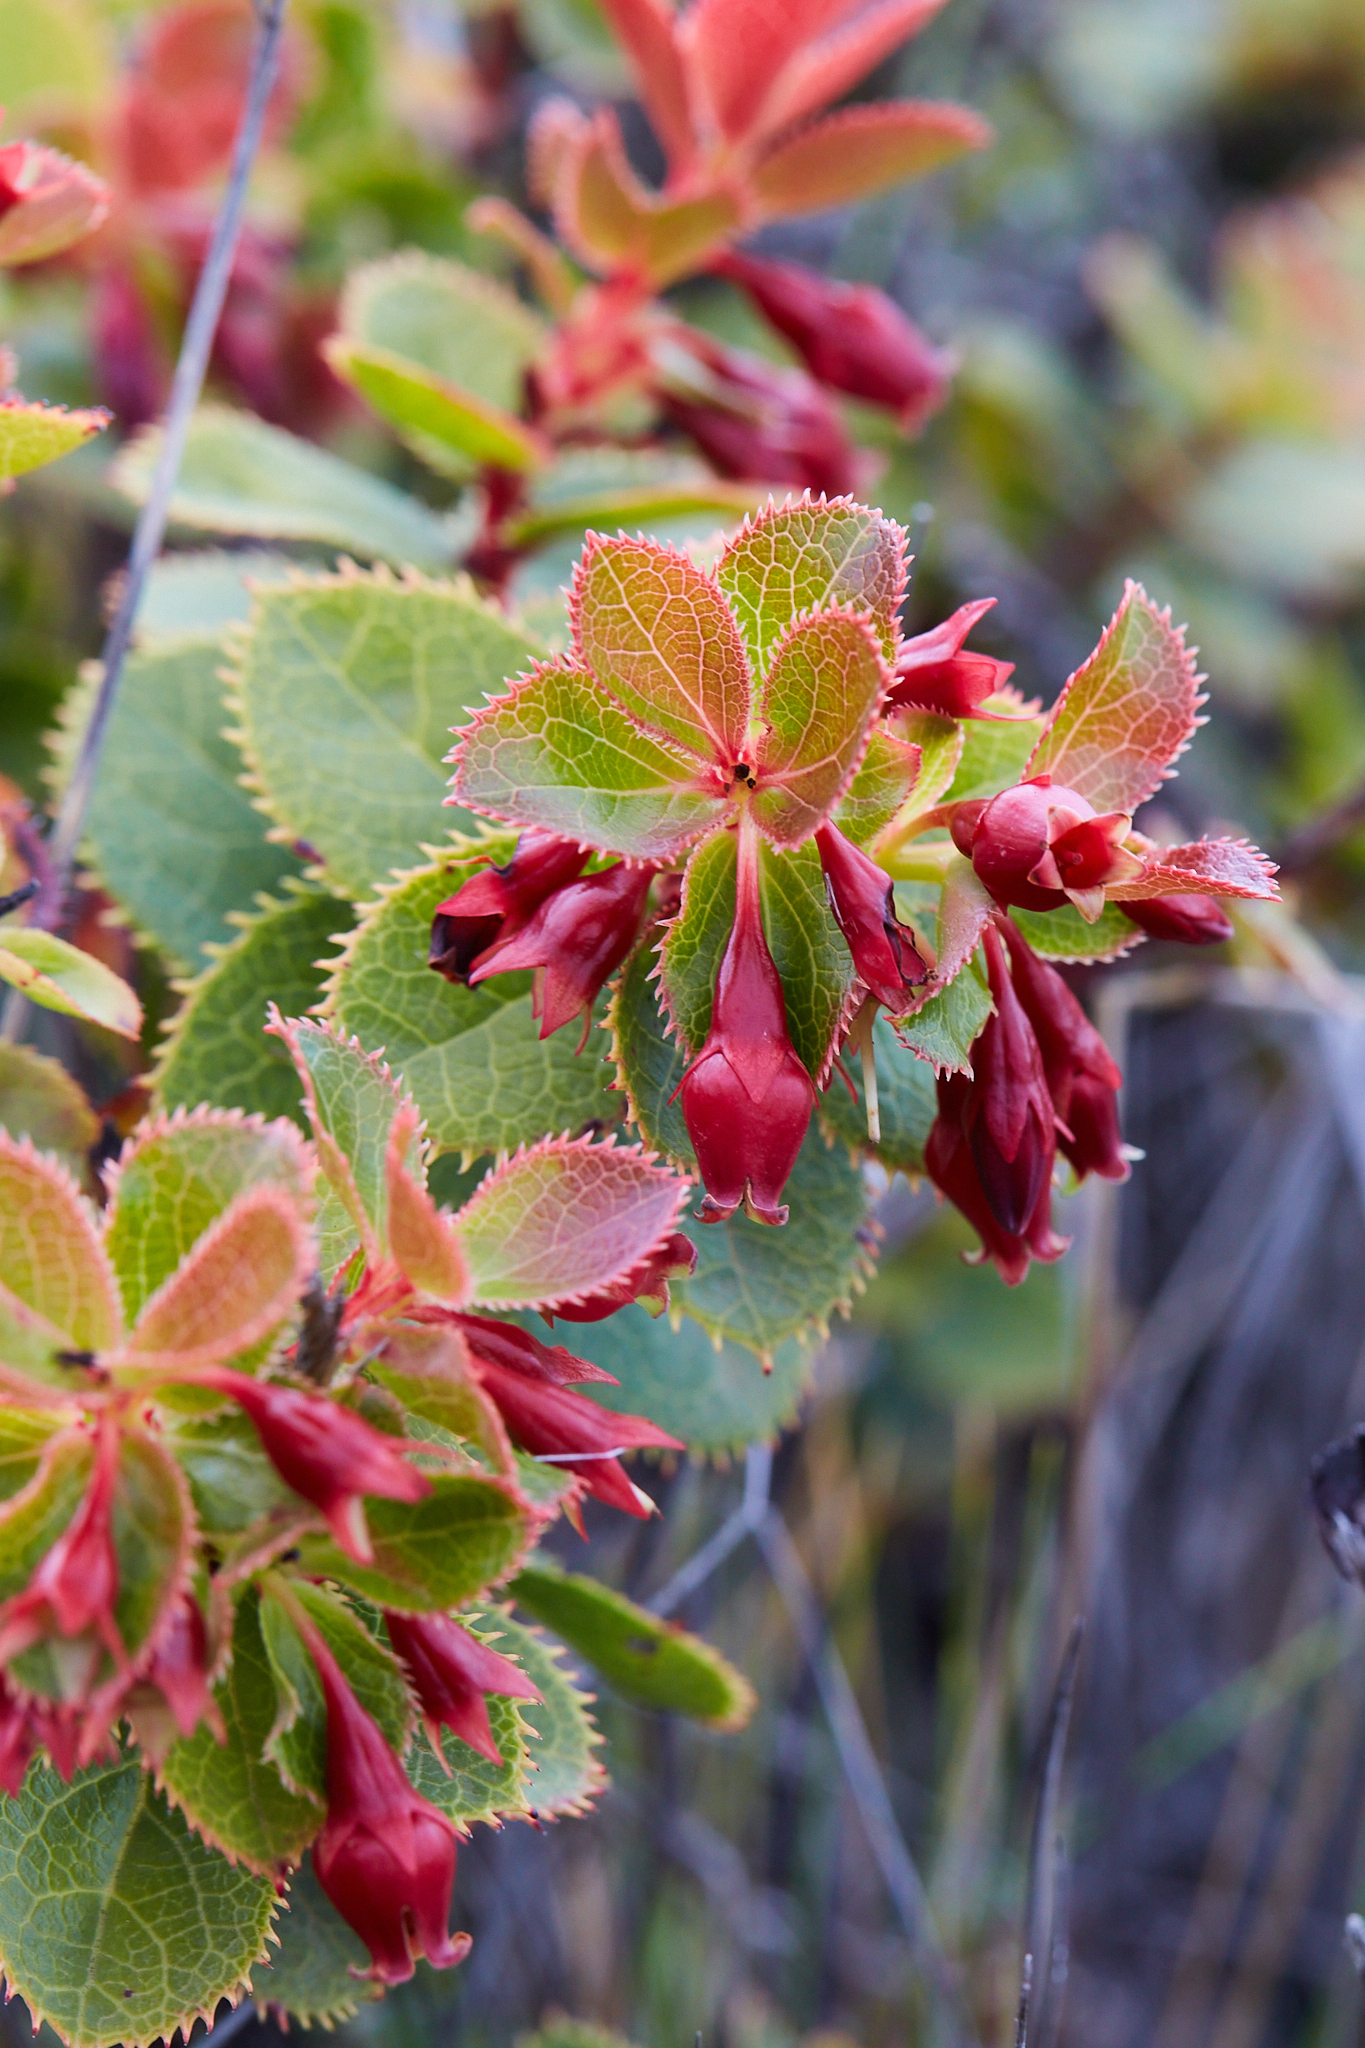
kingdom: Plantae
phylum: Tracheophyta
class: Magnoliopsida
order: Ericales
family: Ericaceae
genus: Vaccinium
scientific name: Vaccinium reticulatum
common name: Ohelo
